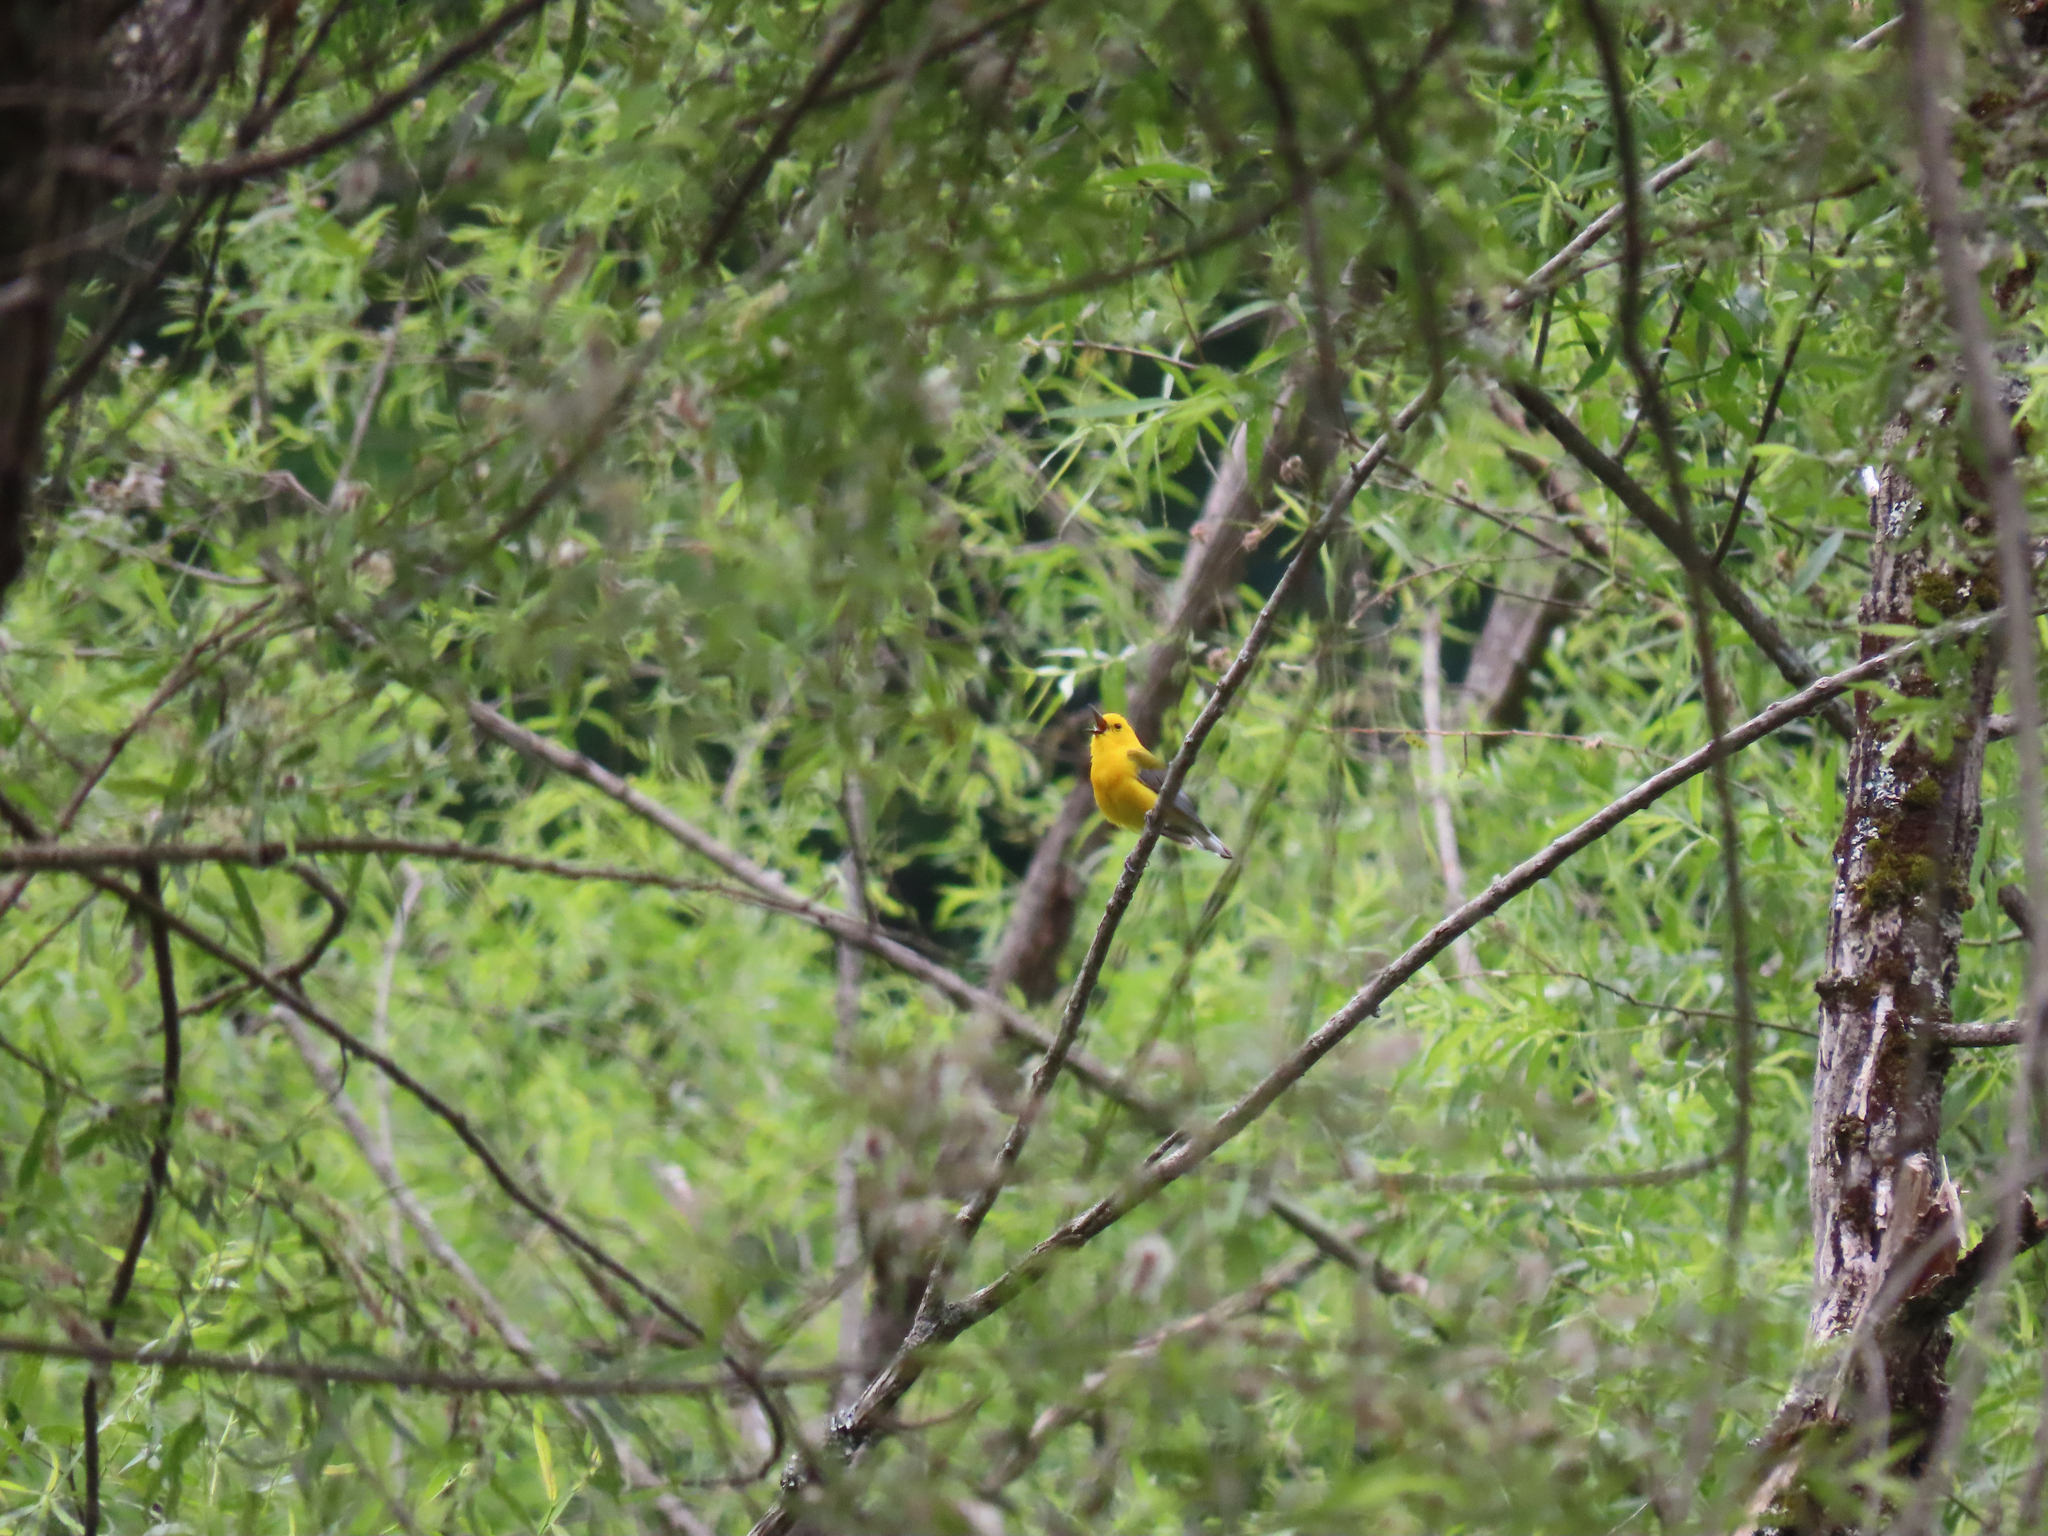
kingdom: Animalia
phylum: Chordata
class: Aves
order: Passeriformes
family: Parulidae
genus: Protonotaria
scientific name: Protonotaria citrea
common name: Prothonotary warbler
